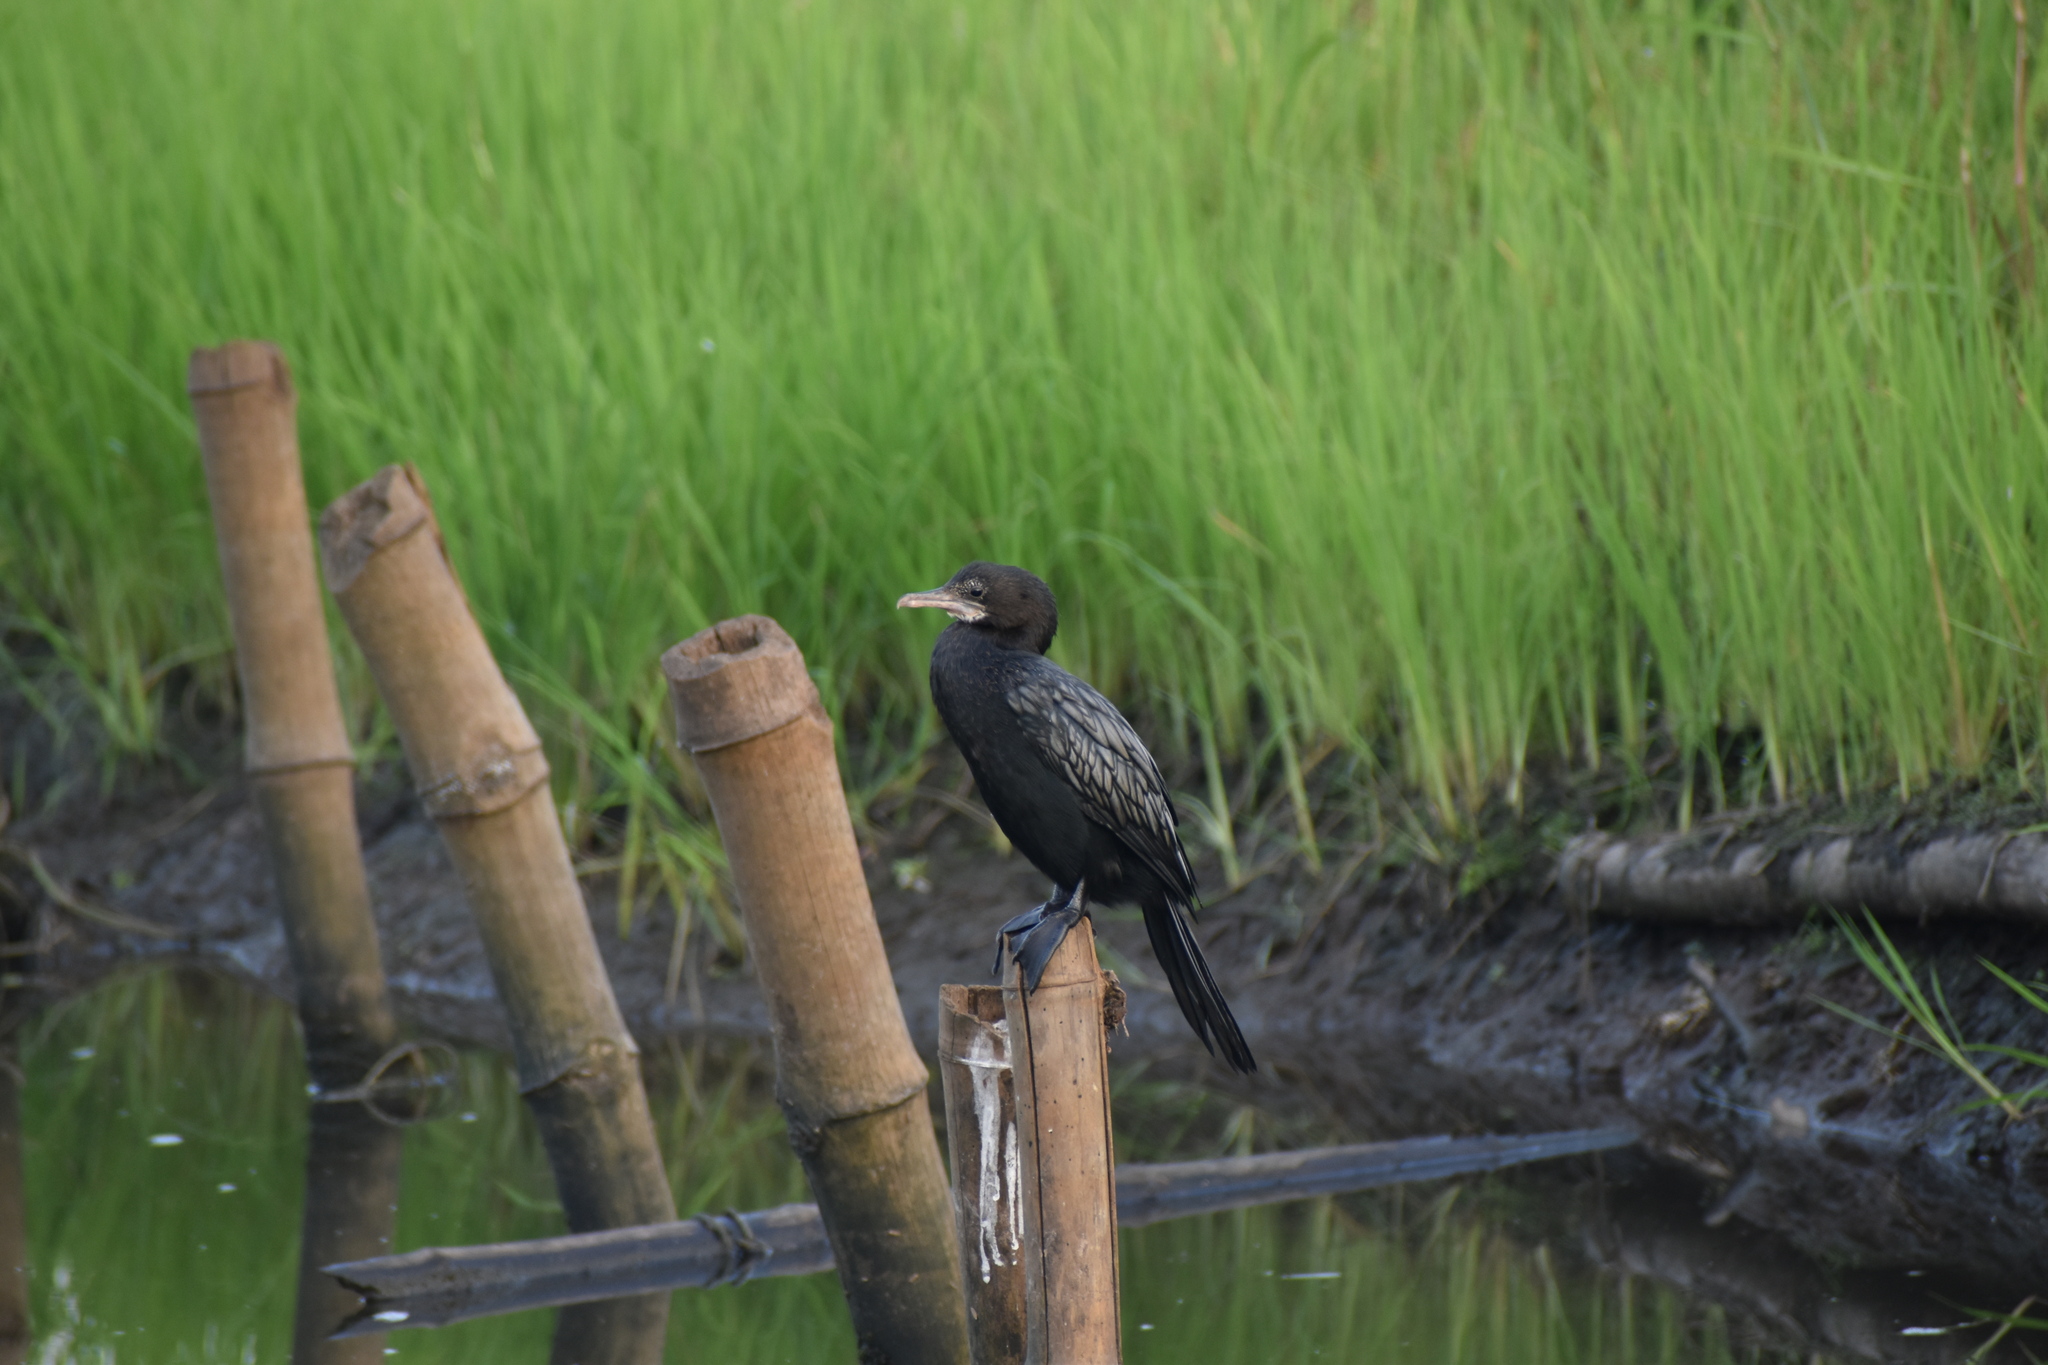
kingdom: Animalia
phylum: Chordata
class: Aves
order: Suliformes
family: Phalacrocoracidae
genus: Microcarbo
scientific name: Microcarbo niger
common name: Little cormorant
